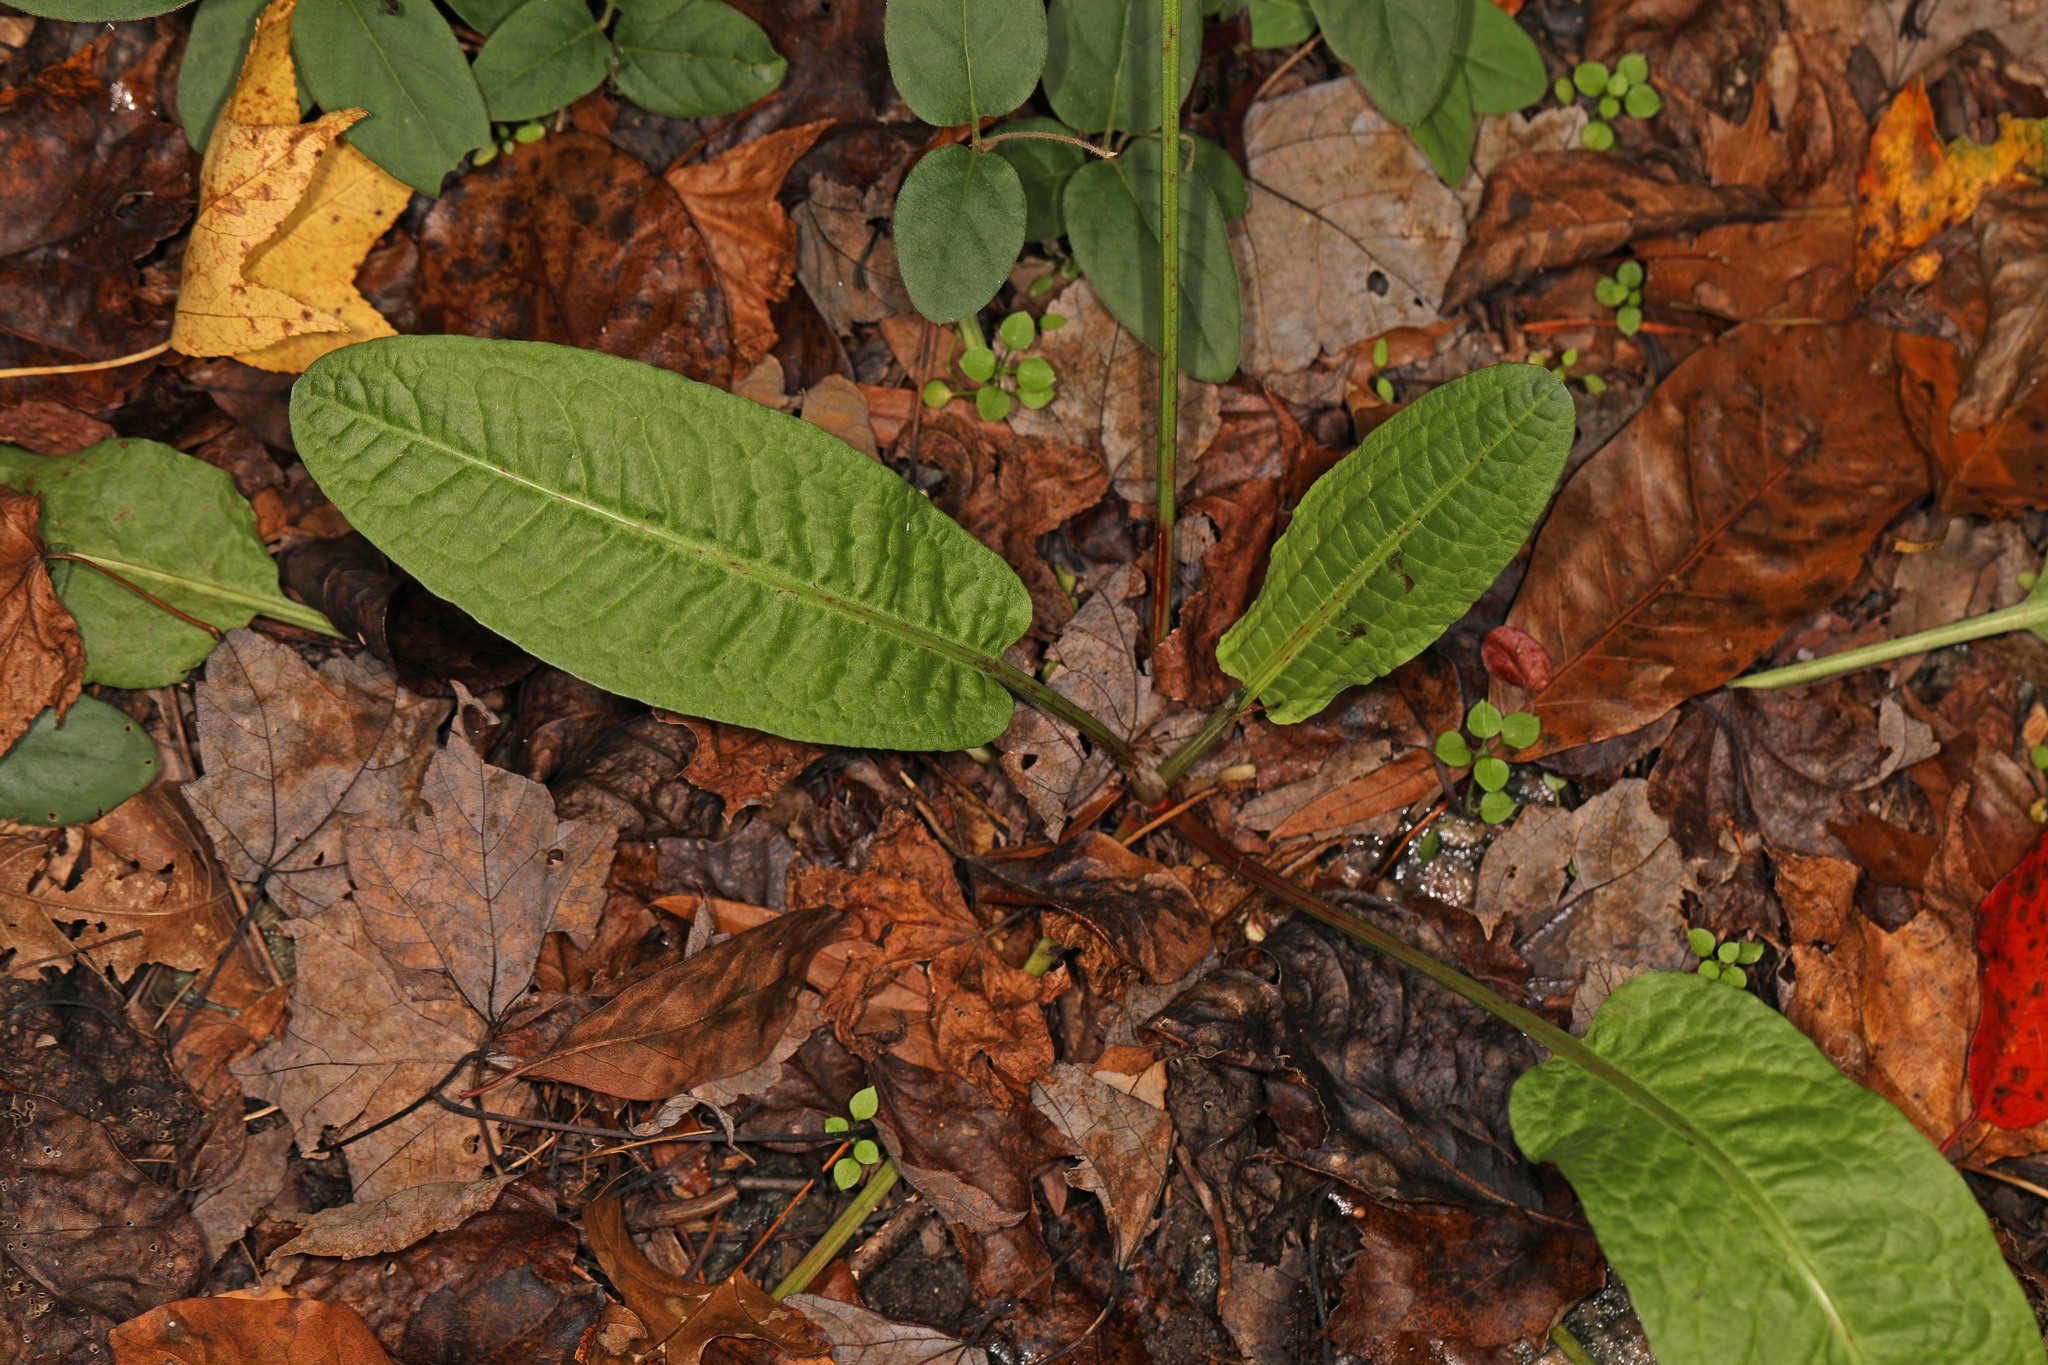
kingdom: Plantae
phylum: Tracheophyta
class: Magnoliopsida
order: Caryophyllales
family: Polygonaceae
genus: Rumex
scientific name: Rumex obtusifolius
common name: Bitter dock
